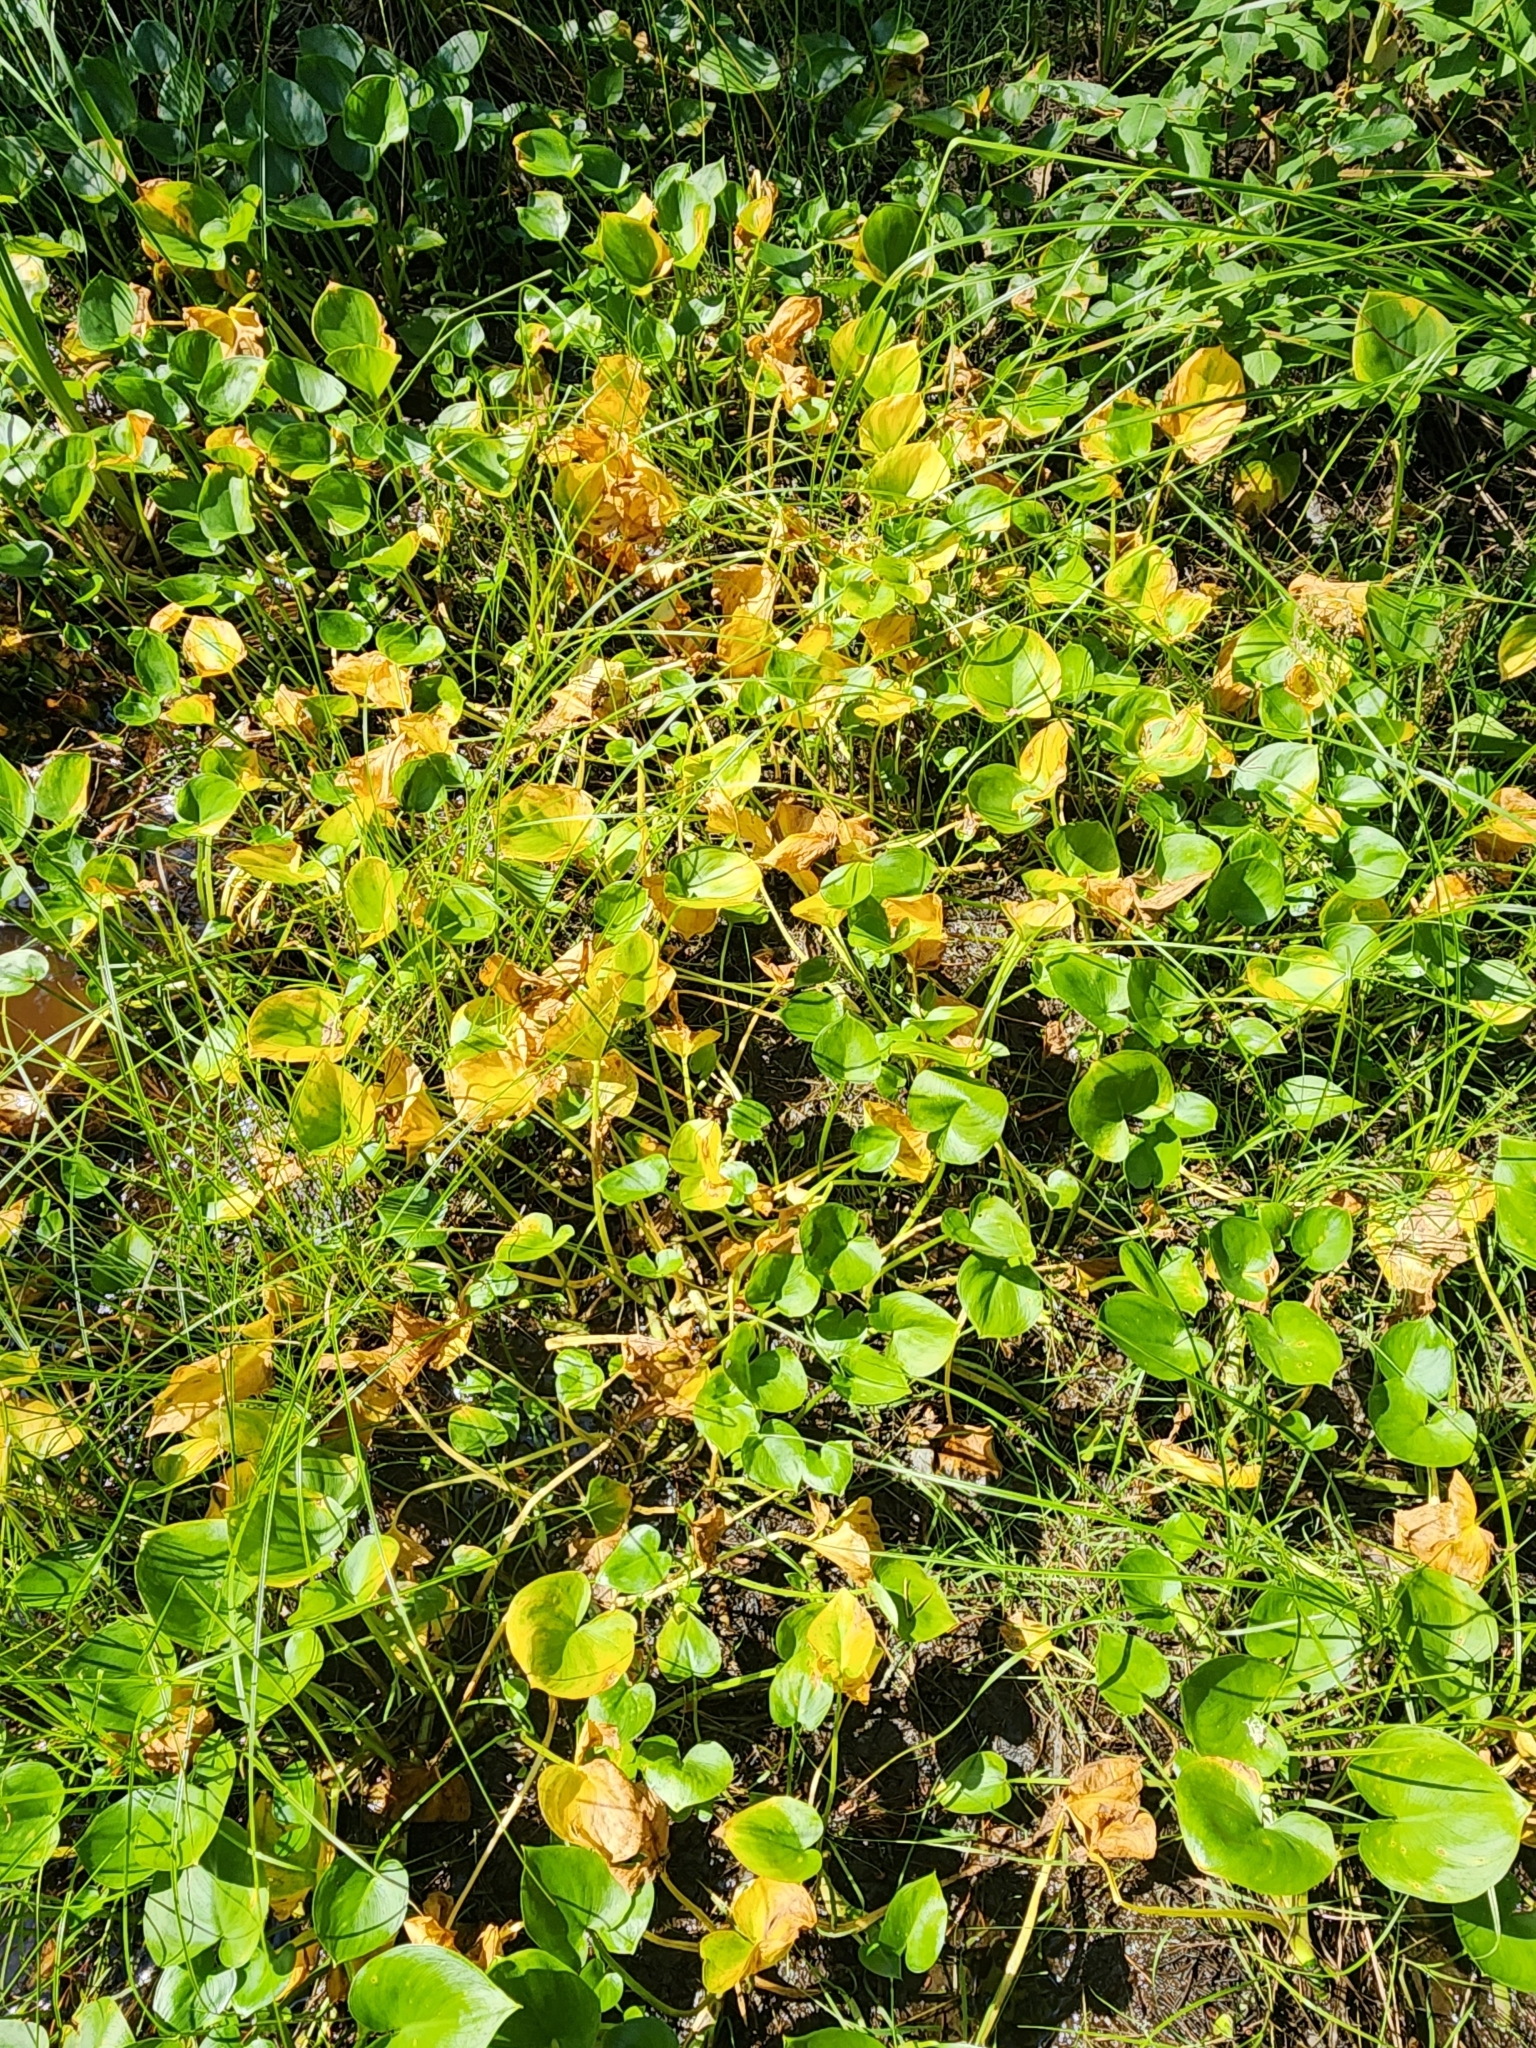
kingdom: Plantae
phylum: Tracheophyta
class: Liliopsida
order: Alismatales
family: Araceae
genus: Calla
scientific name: Calla palustris
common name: Bog arum
